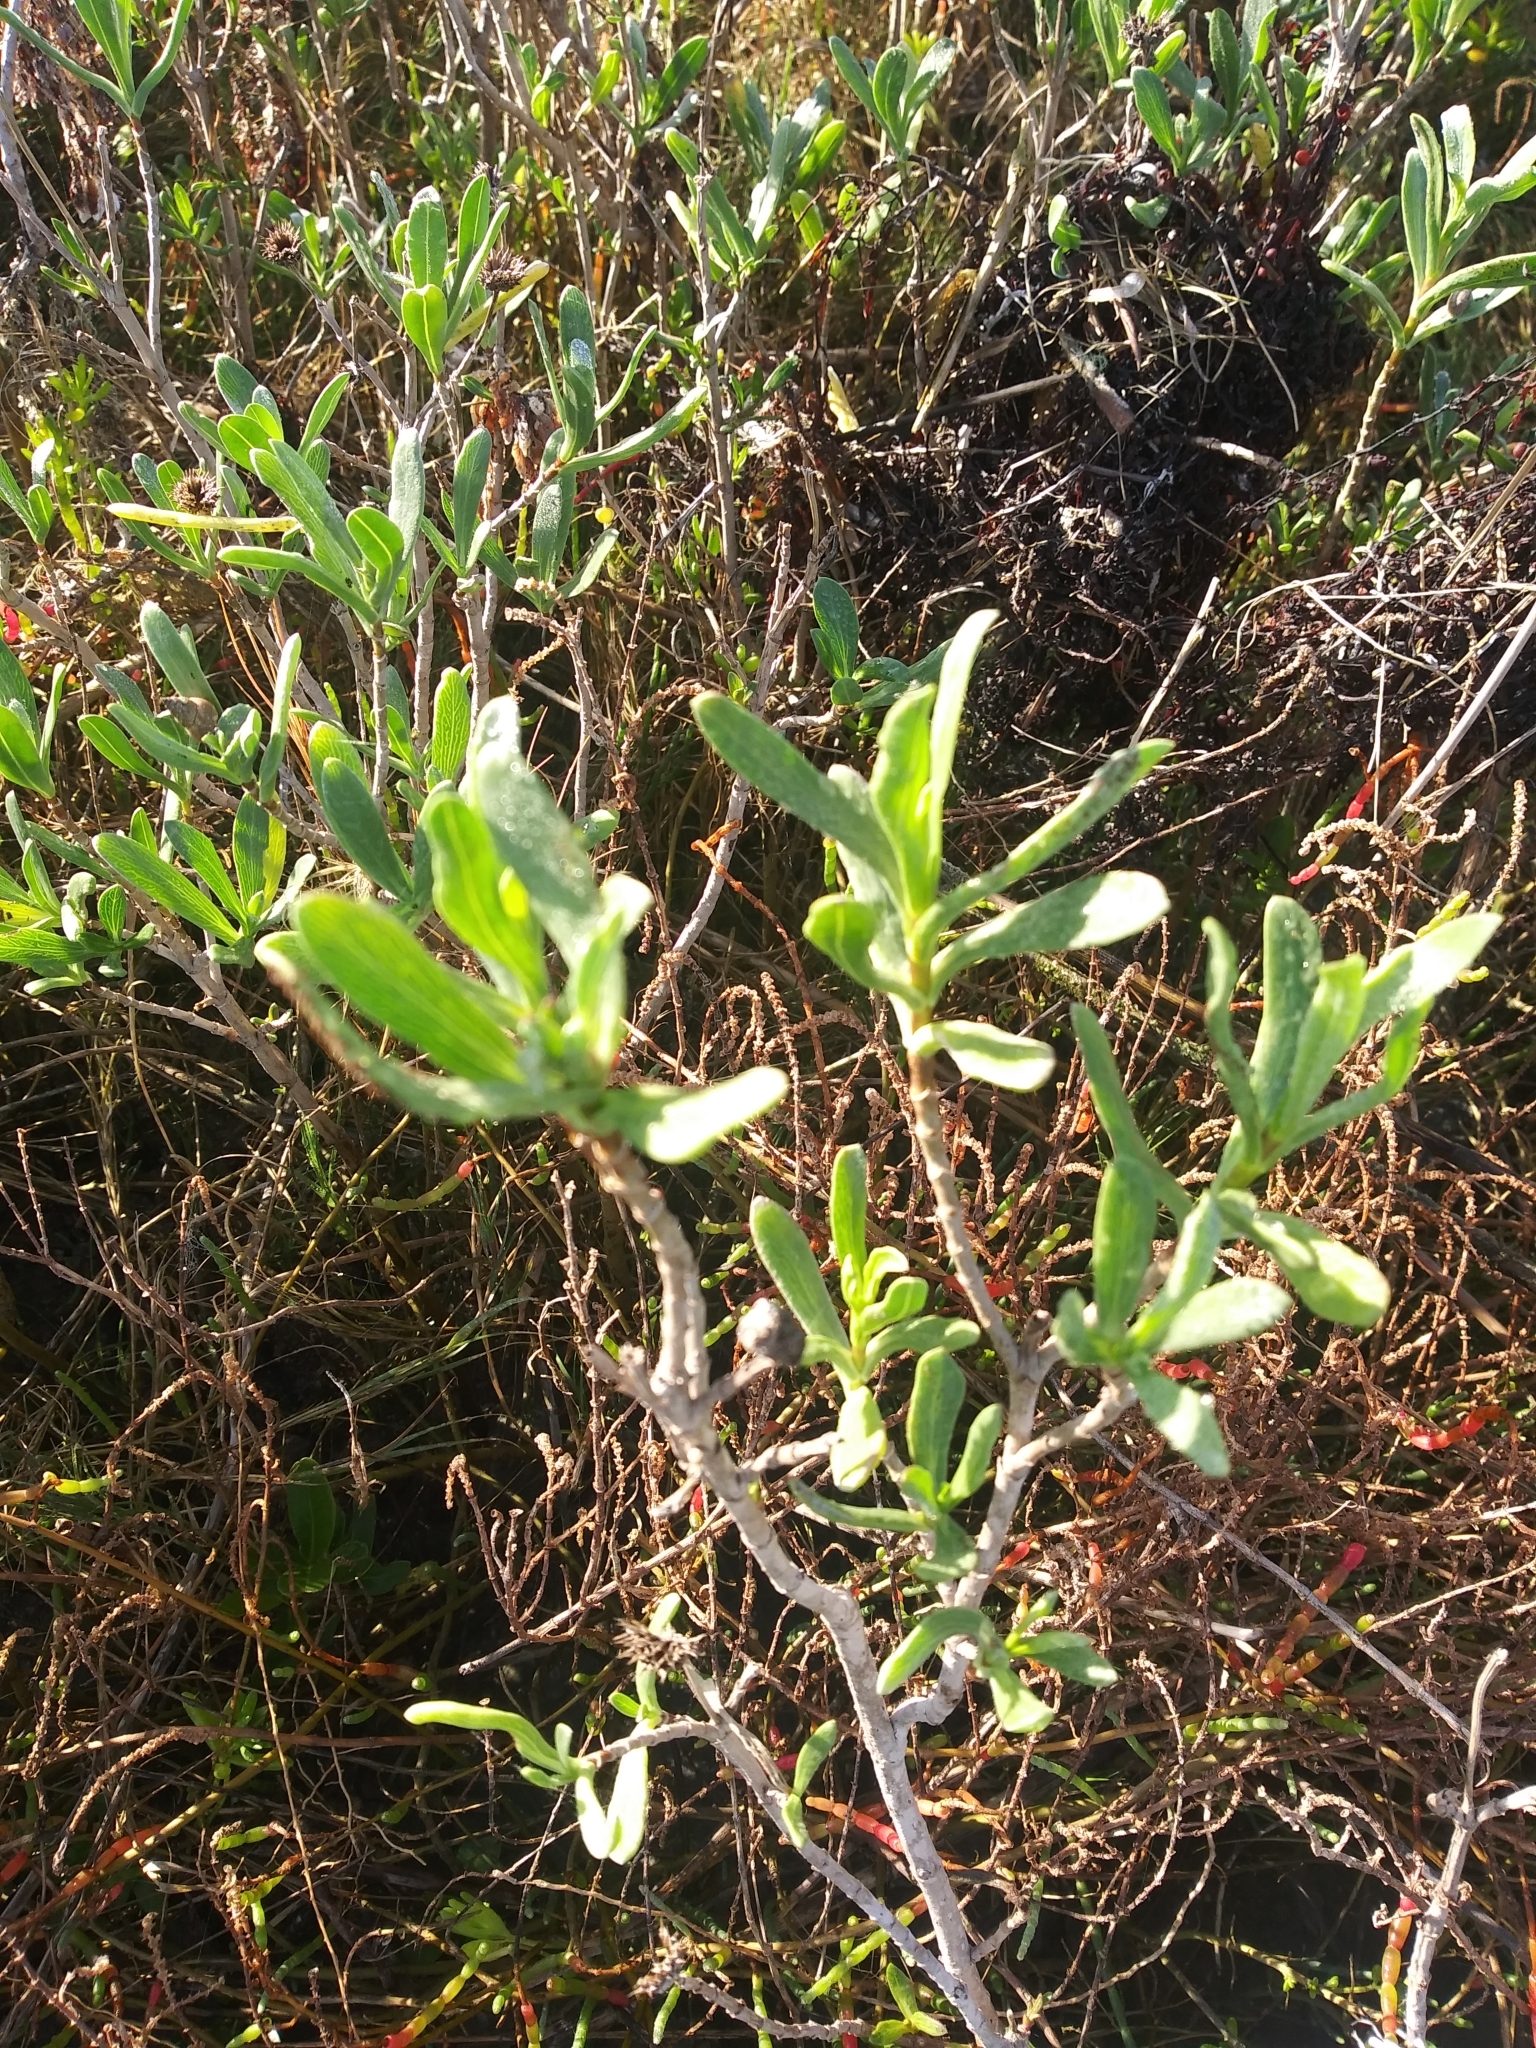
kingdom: Plantae
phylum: Tracheophyta
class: Magnoliopsida
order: Asterales
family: Asteraceae
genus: Borrichia
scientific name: Borrichia frutescens
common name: Sea oxeye
